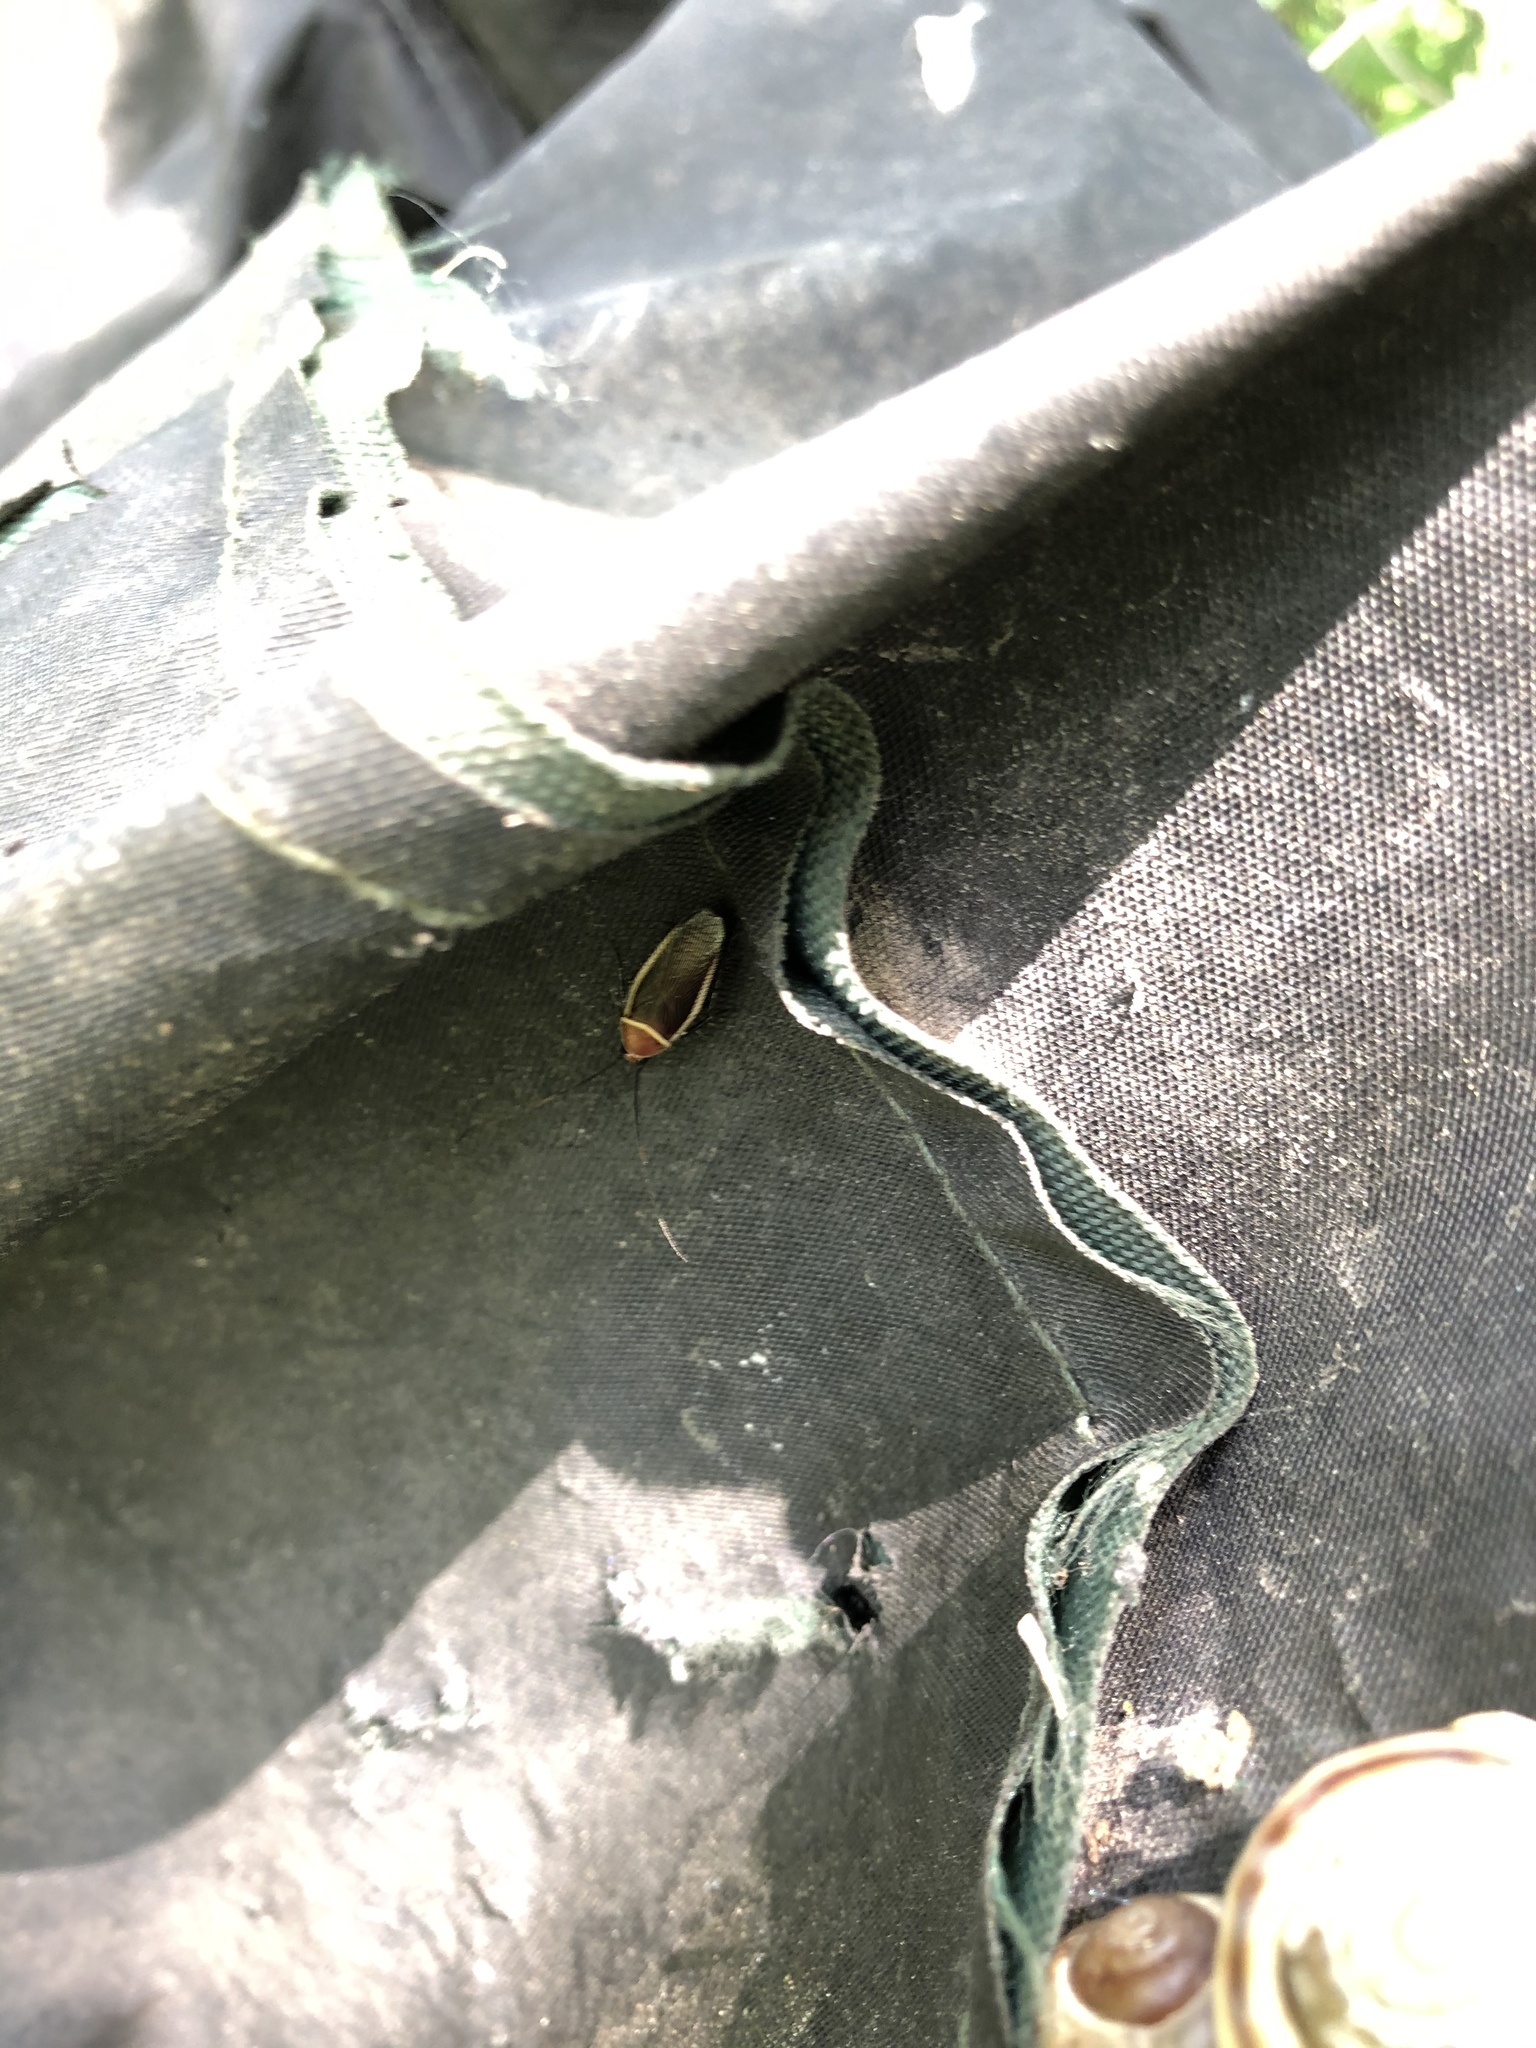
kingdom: Animalia
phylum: Arthropoda
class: Insecta
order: Blattodea
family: Ectobiidae
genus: Pseudomops
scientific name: Pseudomops septentrionalis
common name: Pale-bordered field cockroach
